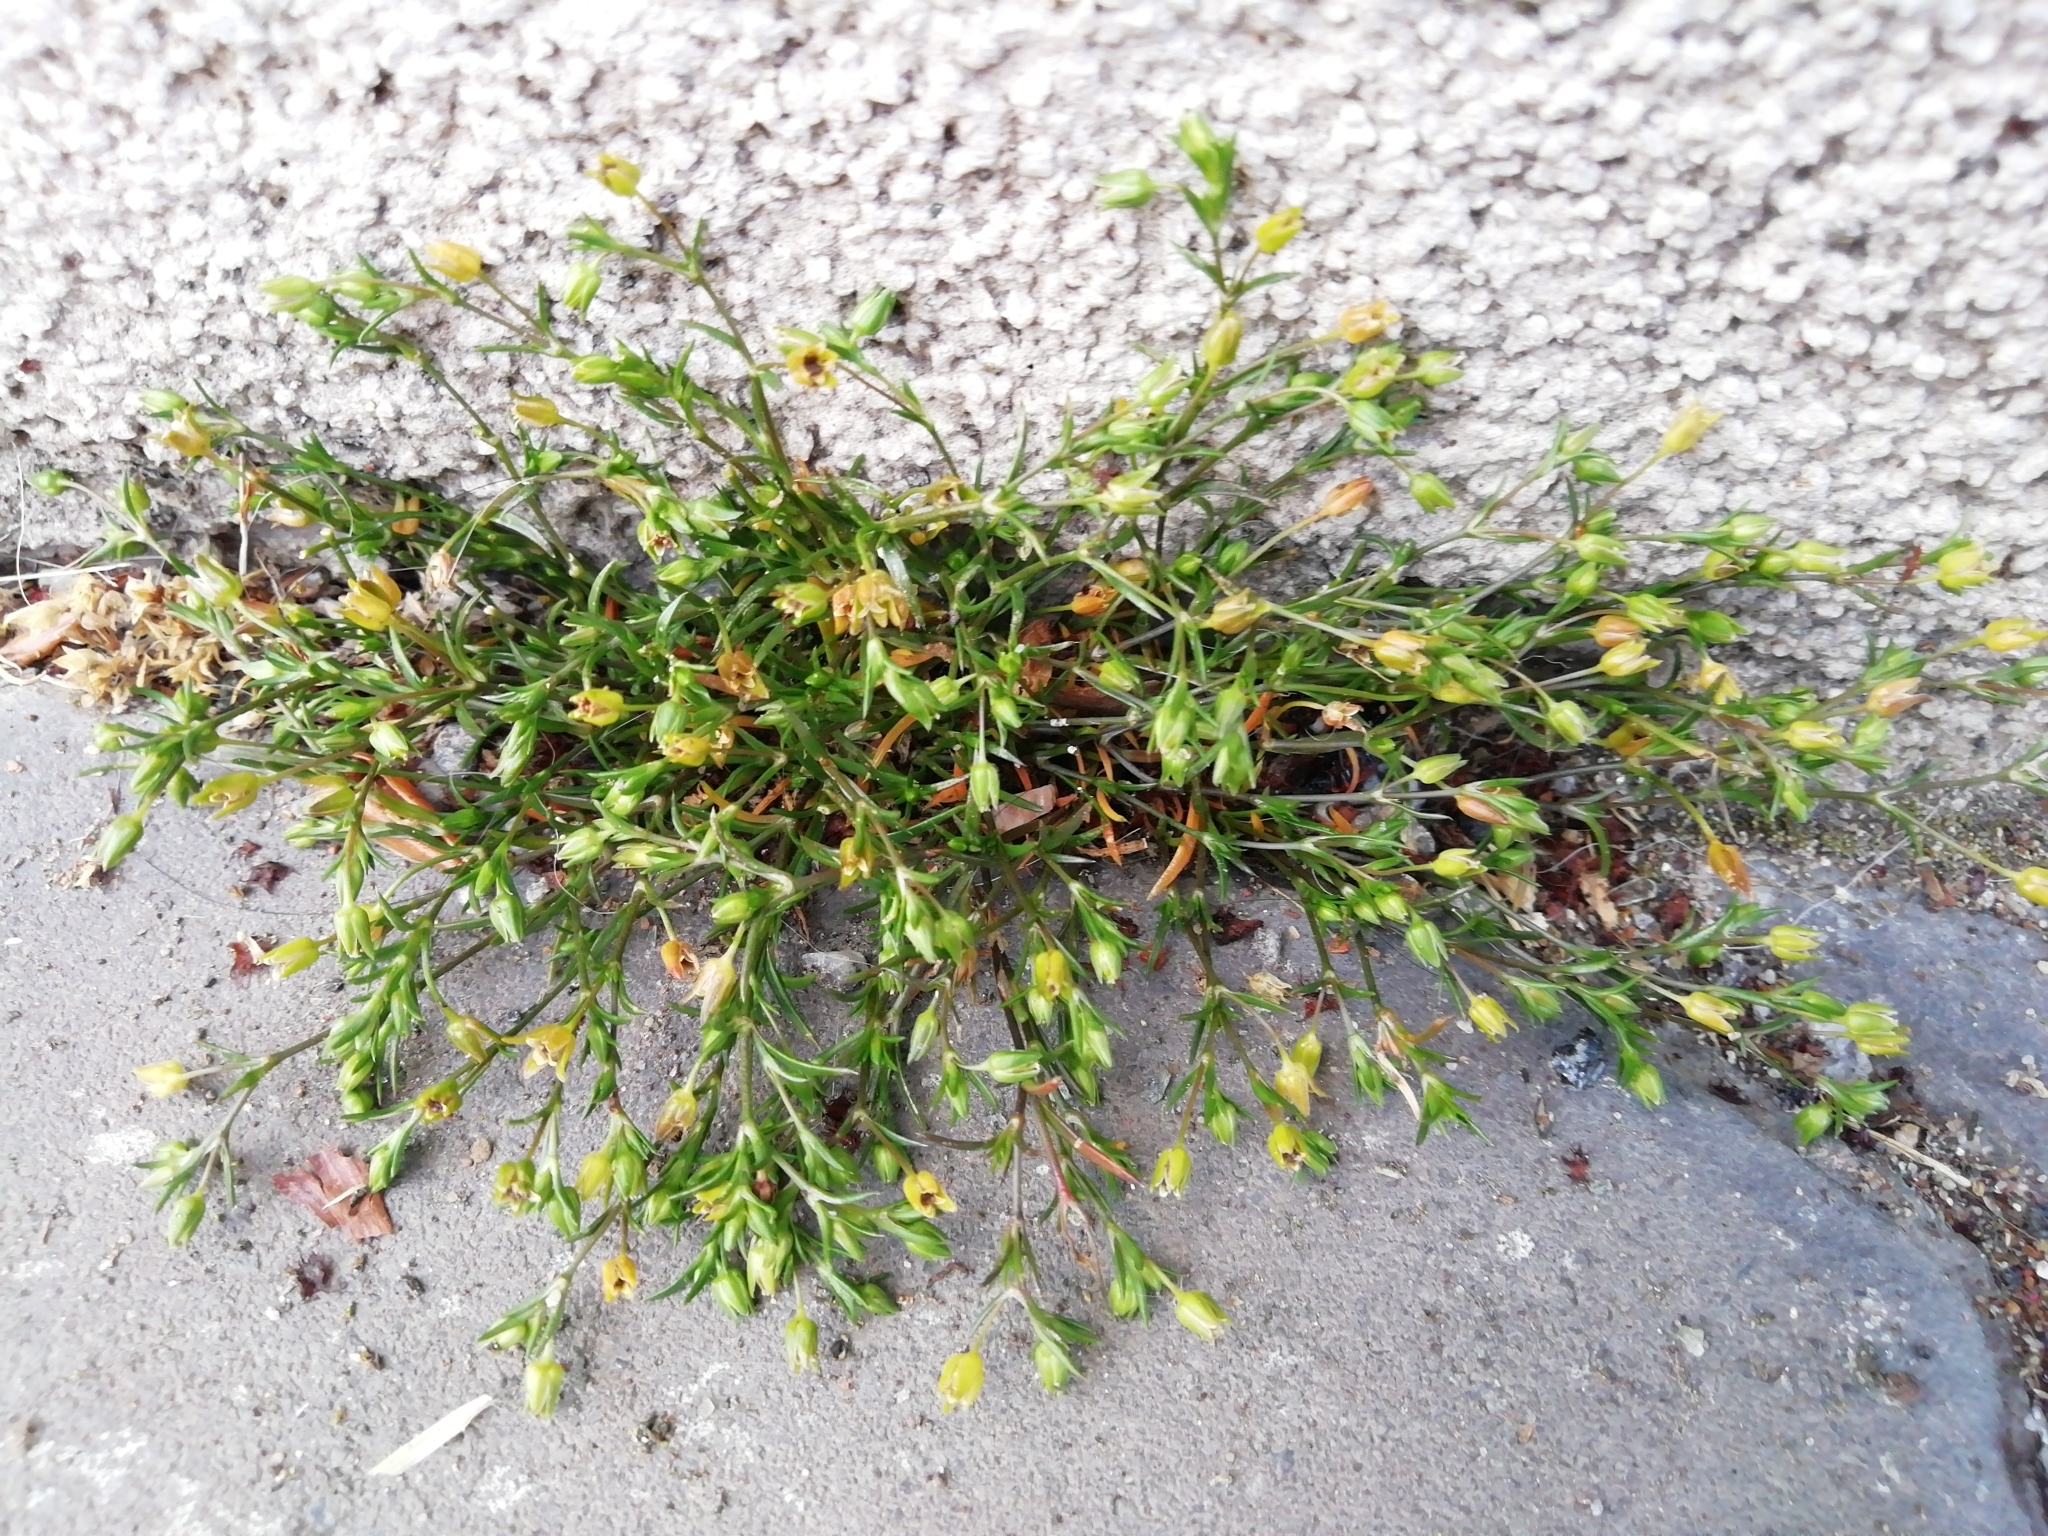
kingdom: Plantae
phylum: Tracheophyta
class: Magnoliopsida
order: Caryophyllales
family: Caryophyllaceae
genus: Sagina
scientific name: Sagina procumbens
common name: Procumbent pearlwort
